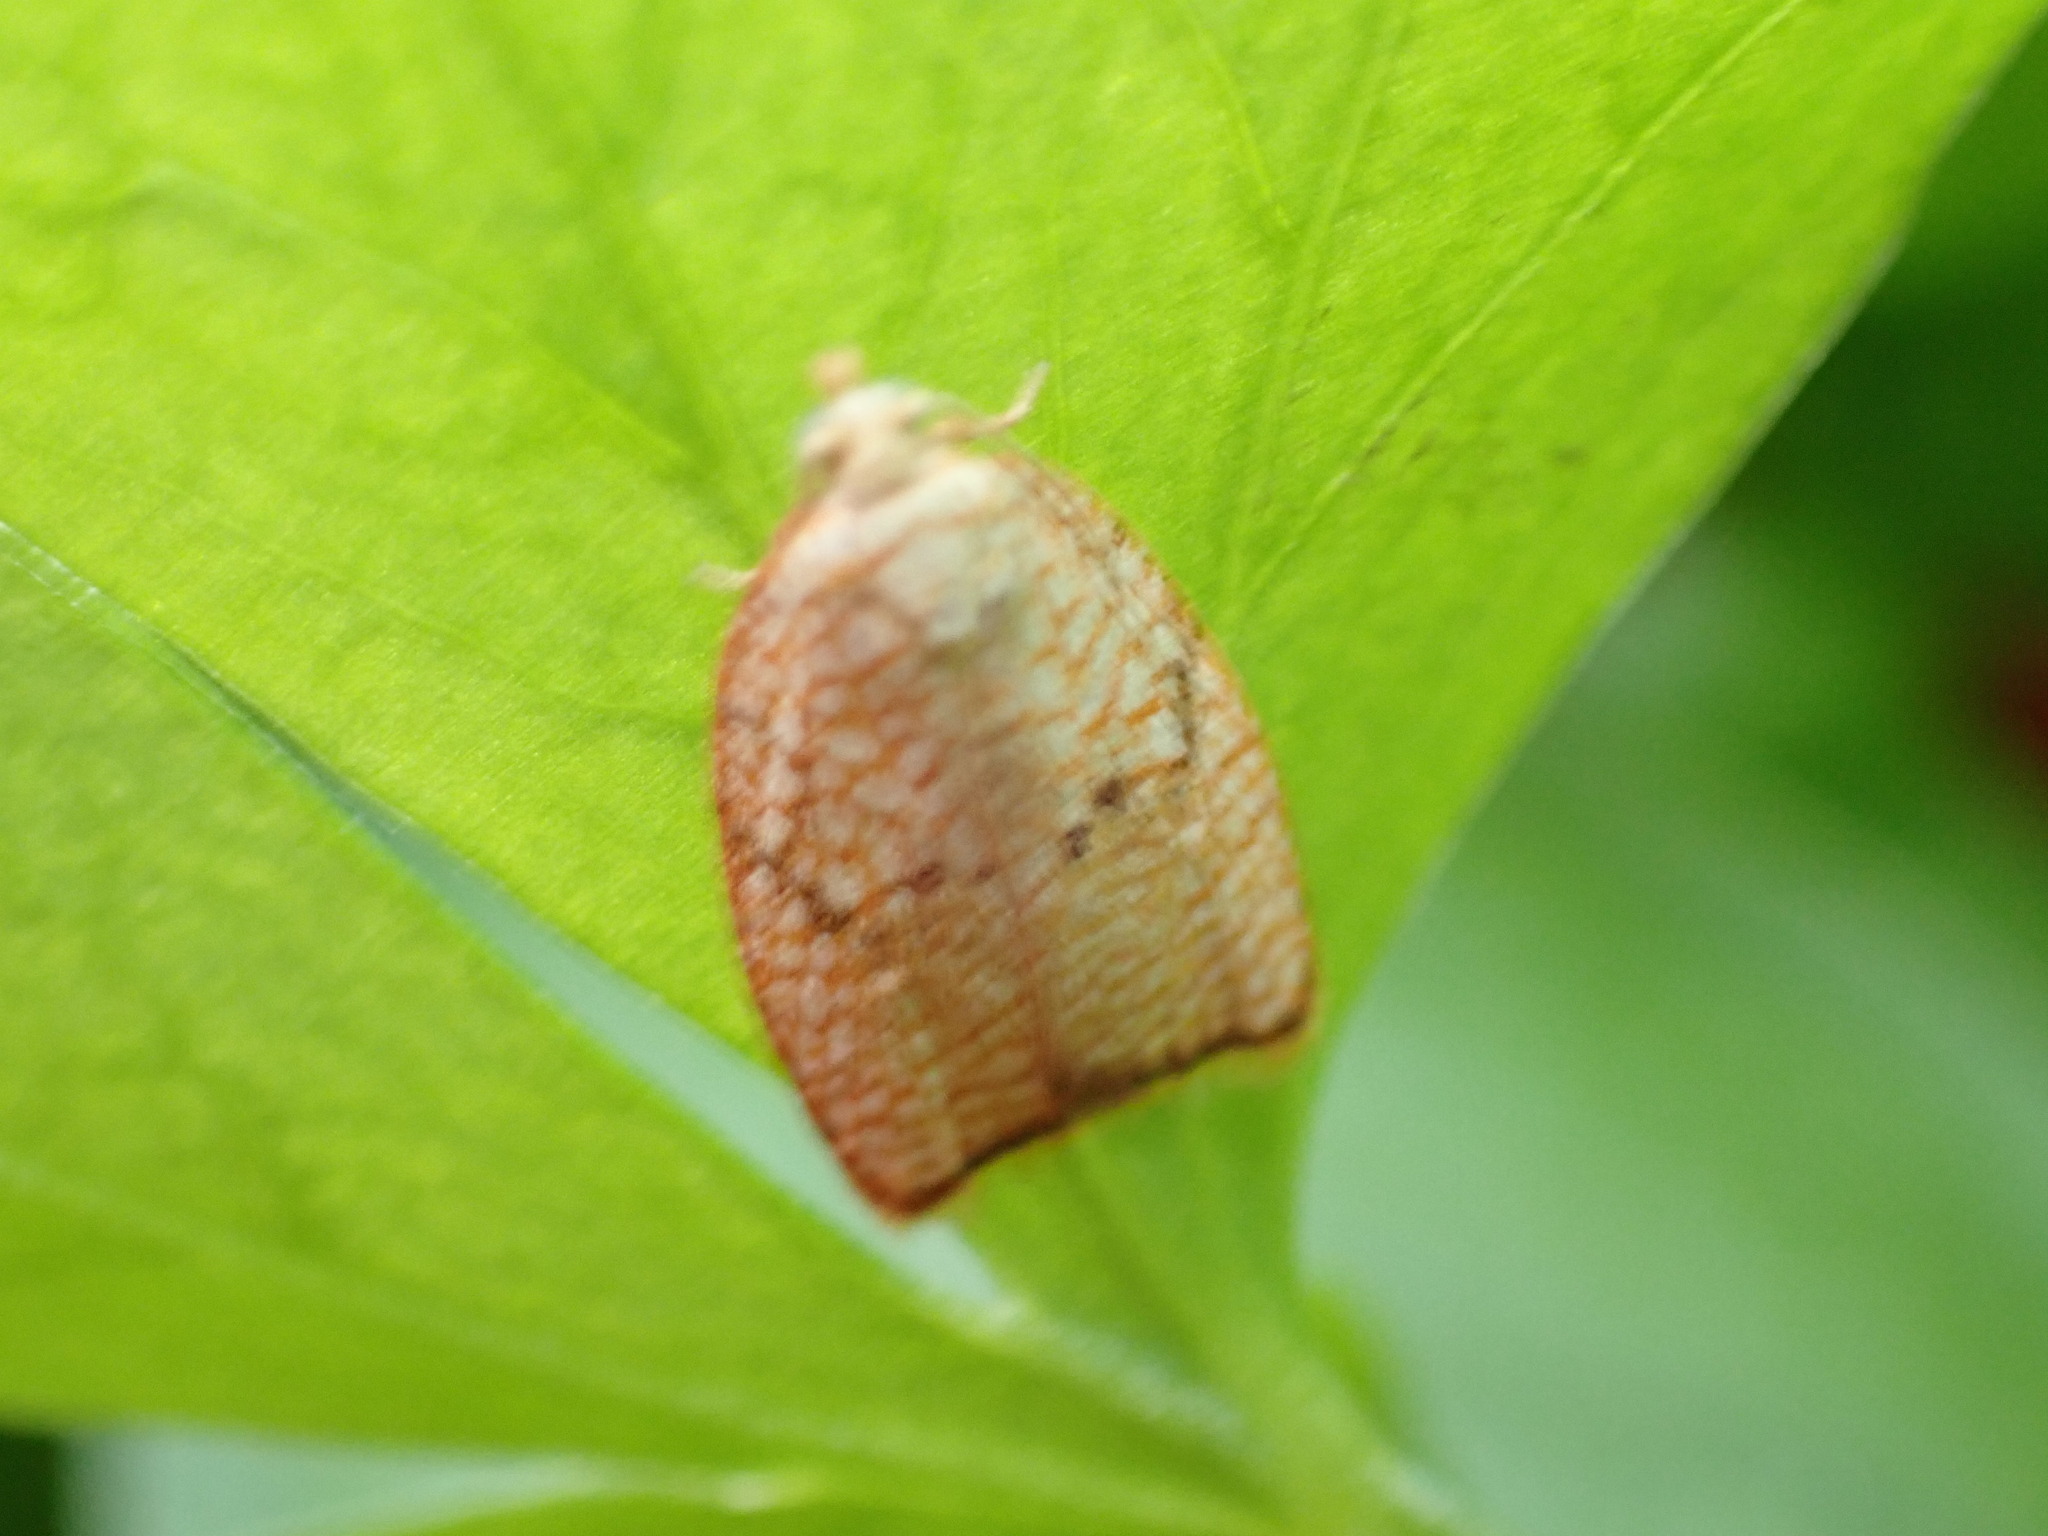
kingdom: Animalia
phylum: Arthropoda
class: Insecta
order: Lepidoptera
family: Tortricidae
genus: Acleris
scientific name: Acleris forsskaleana
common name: Maple button
